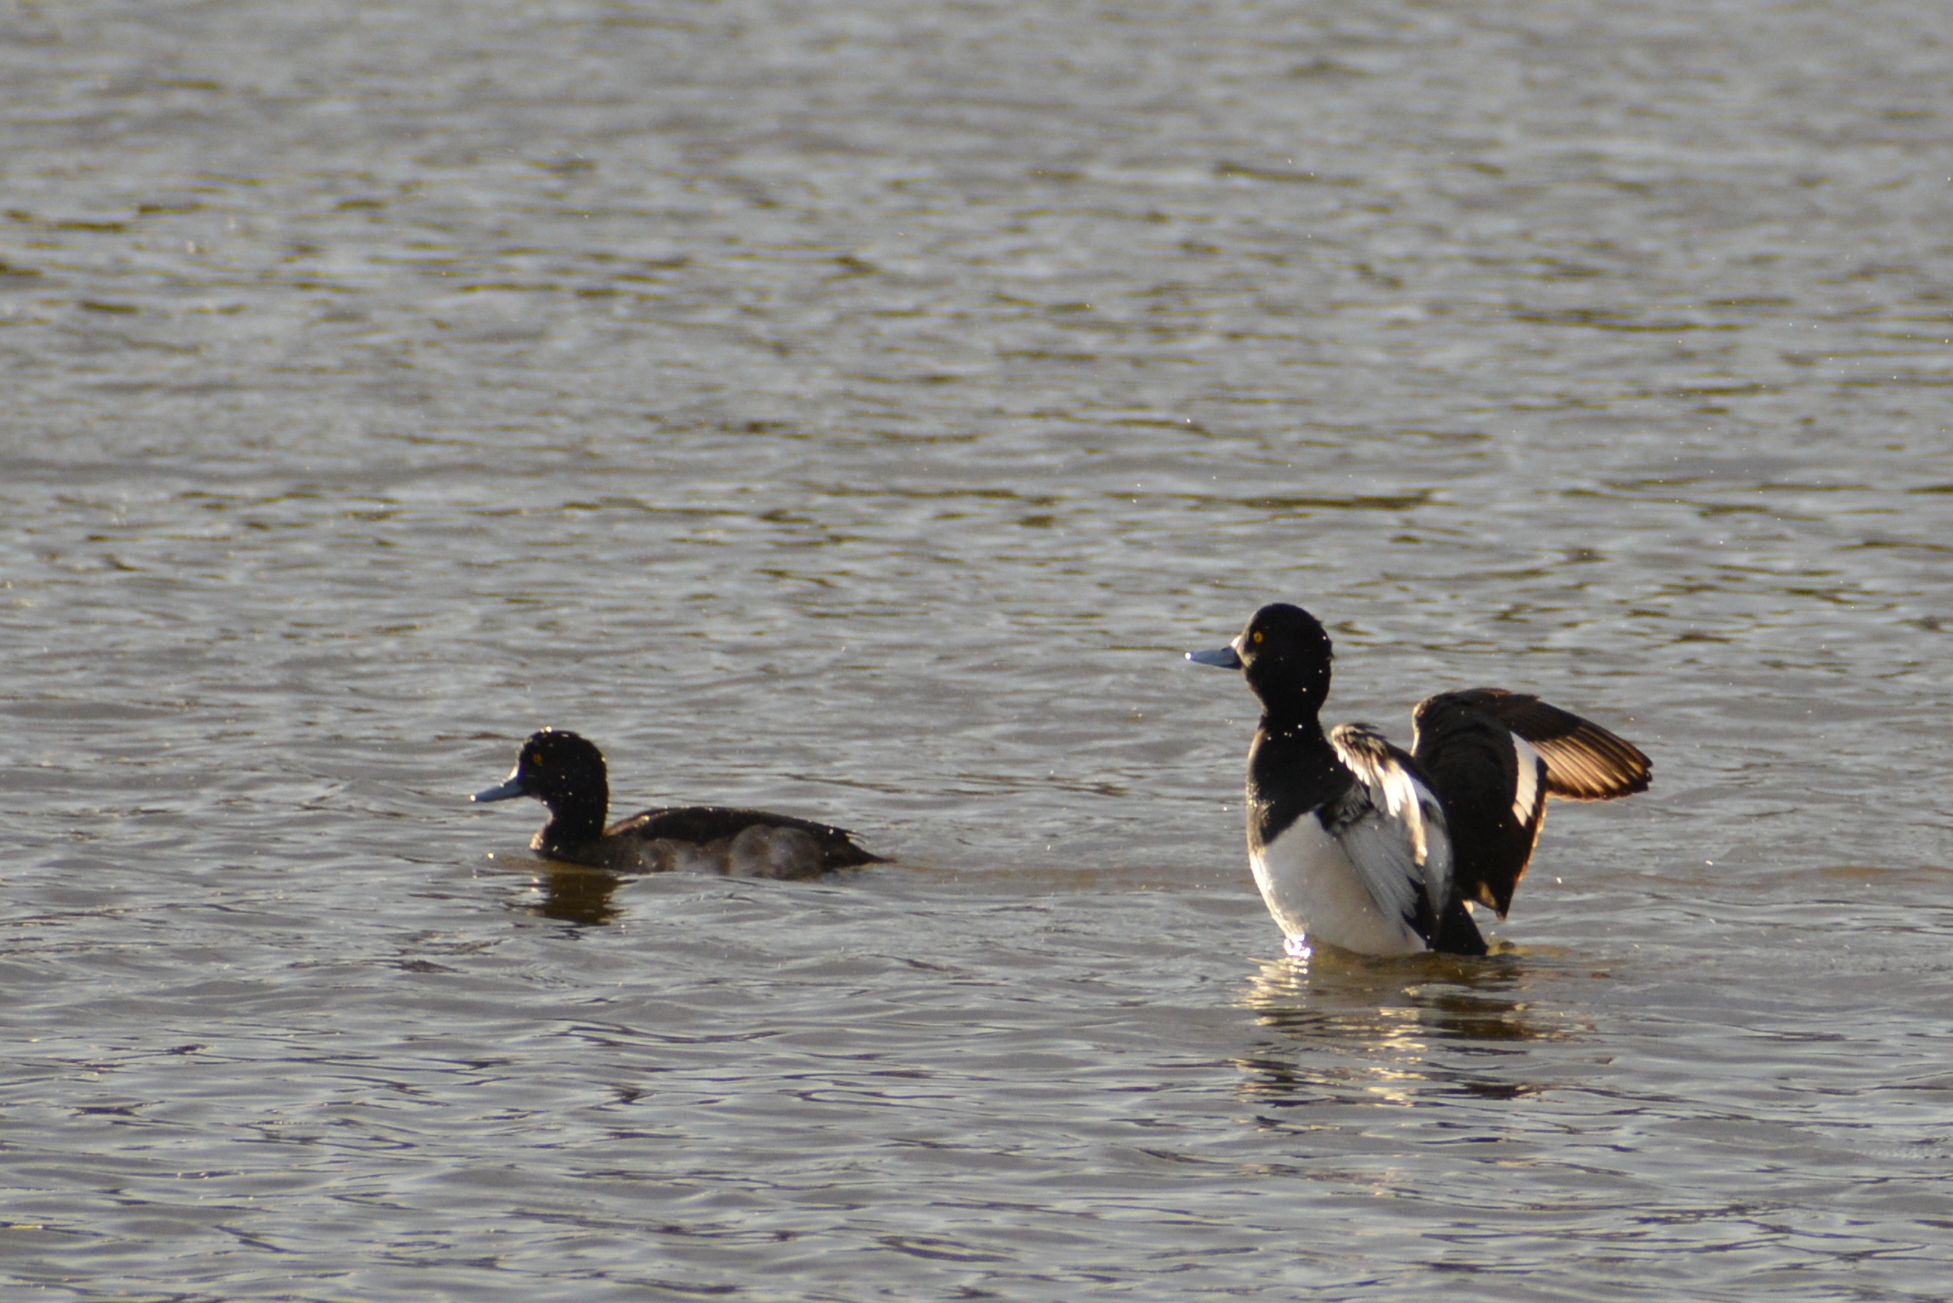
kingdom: Animalia
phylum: Chordata
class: Aves
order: Anseriformes
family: Anatidae
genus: Aythya
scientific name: Aythya fuligula
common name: Tufted duck
